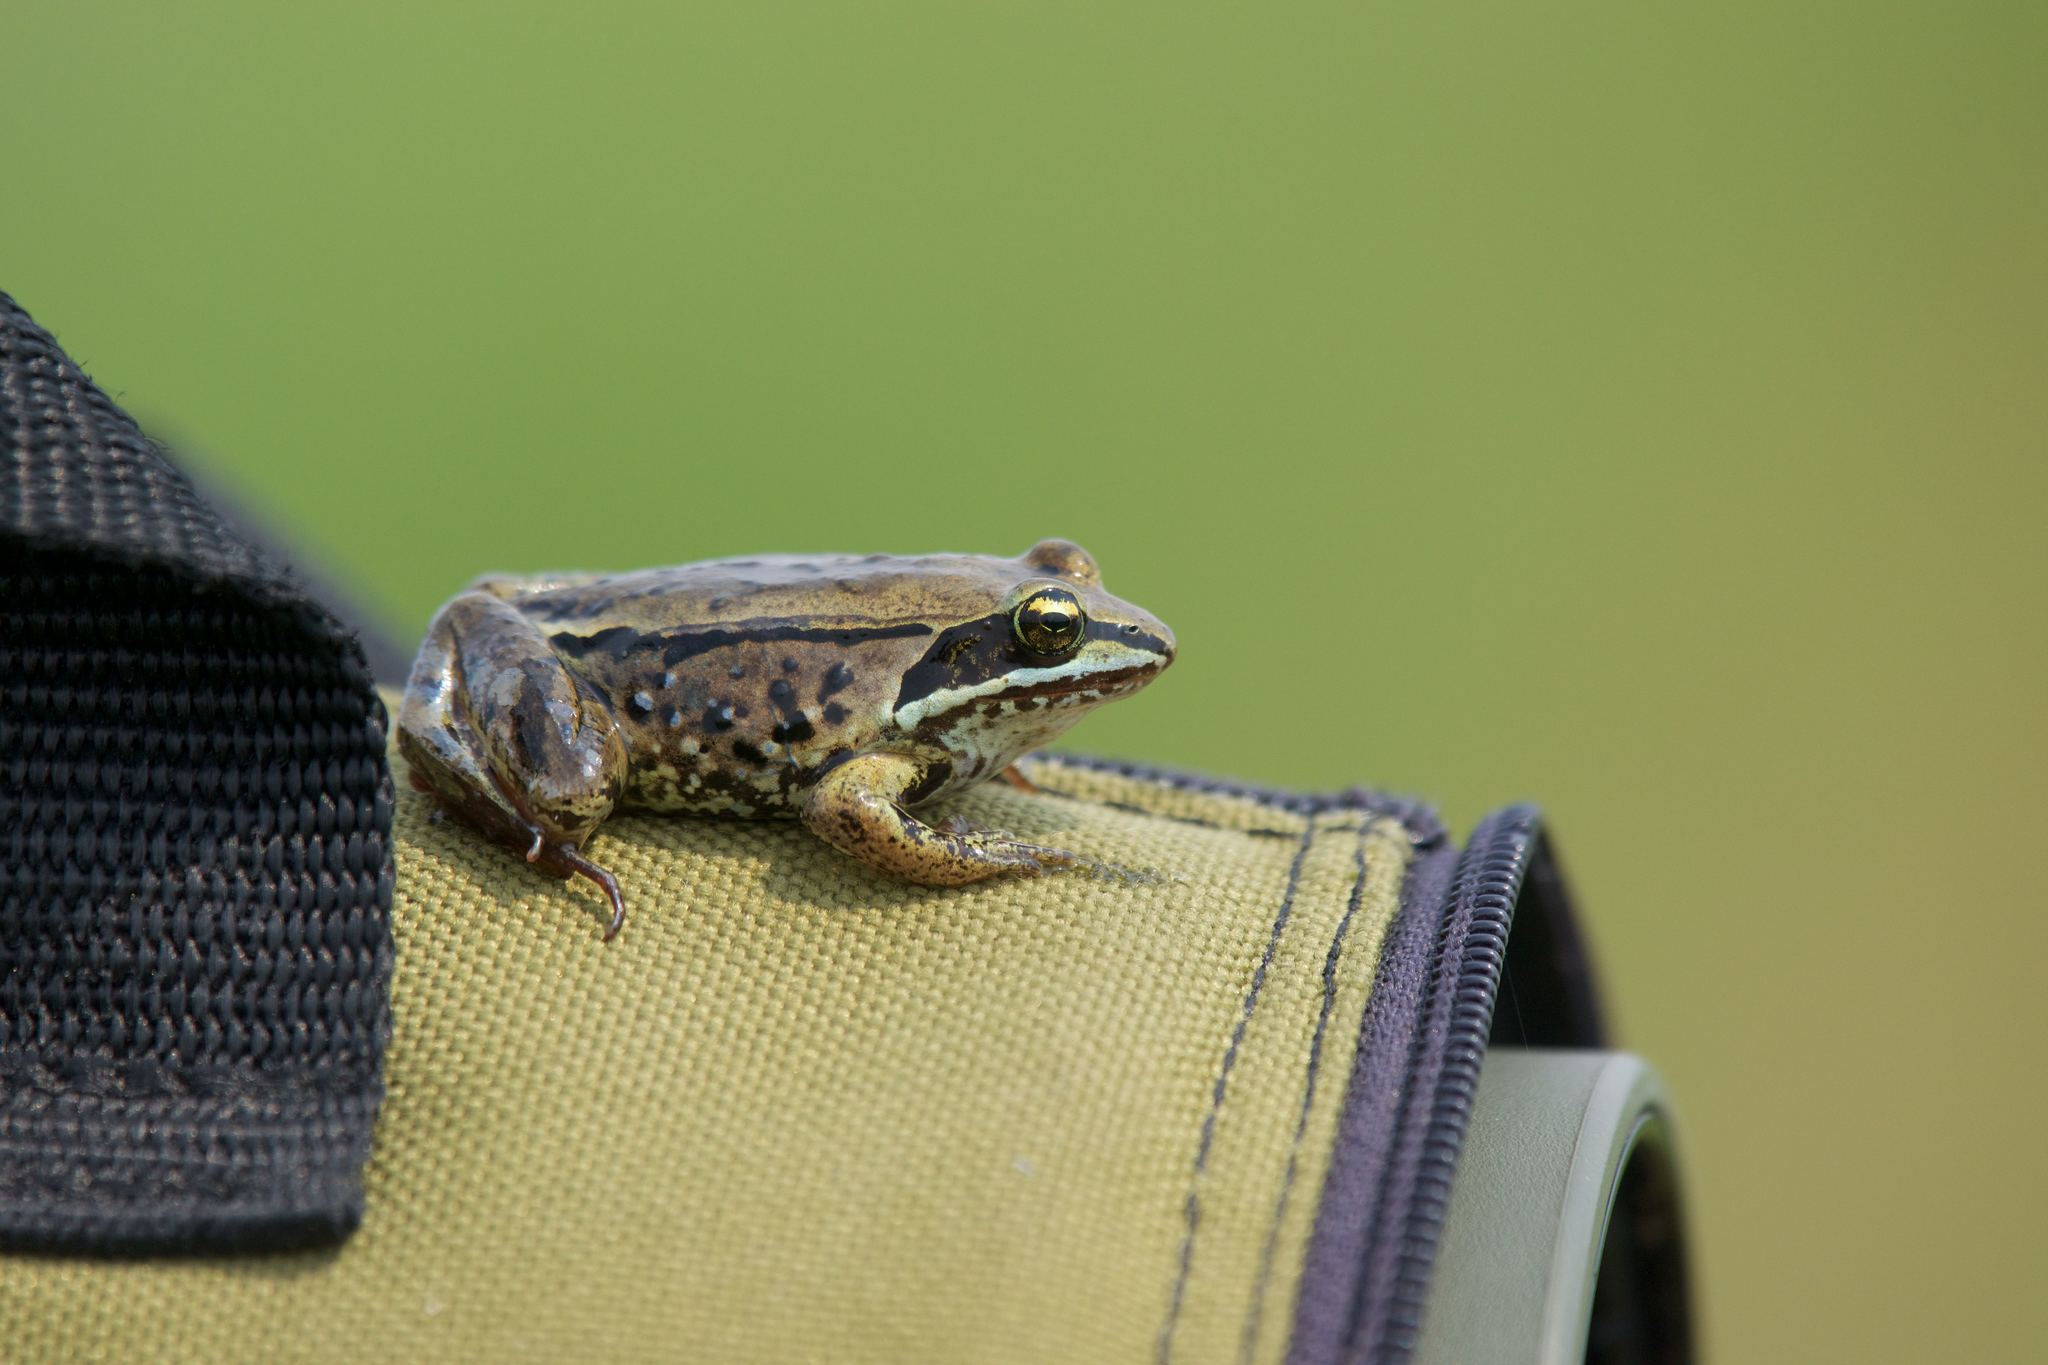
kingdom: Animalia
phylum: Chordata
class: Amphibia
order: Anura
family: Ranidae
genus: Lithobates
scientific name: Lithobates sylvaticus
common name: Wood frog
